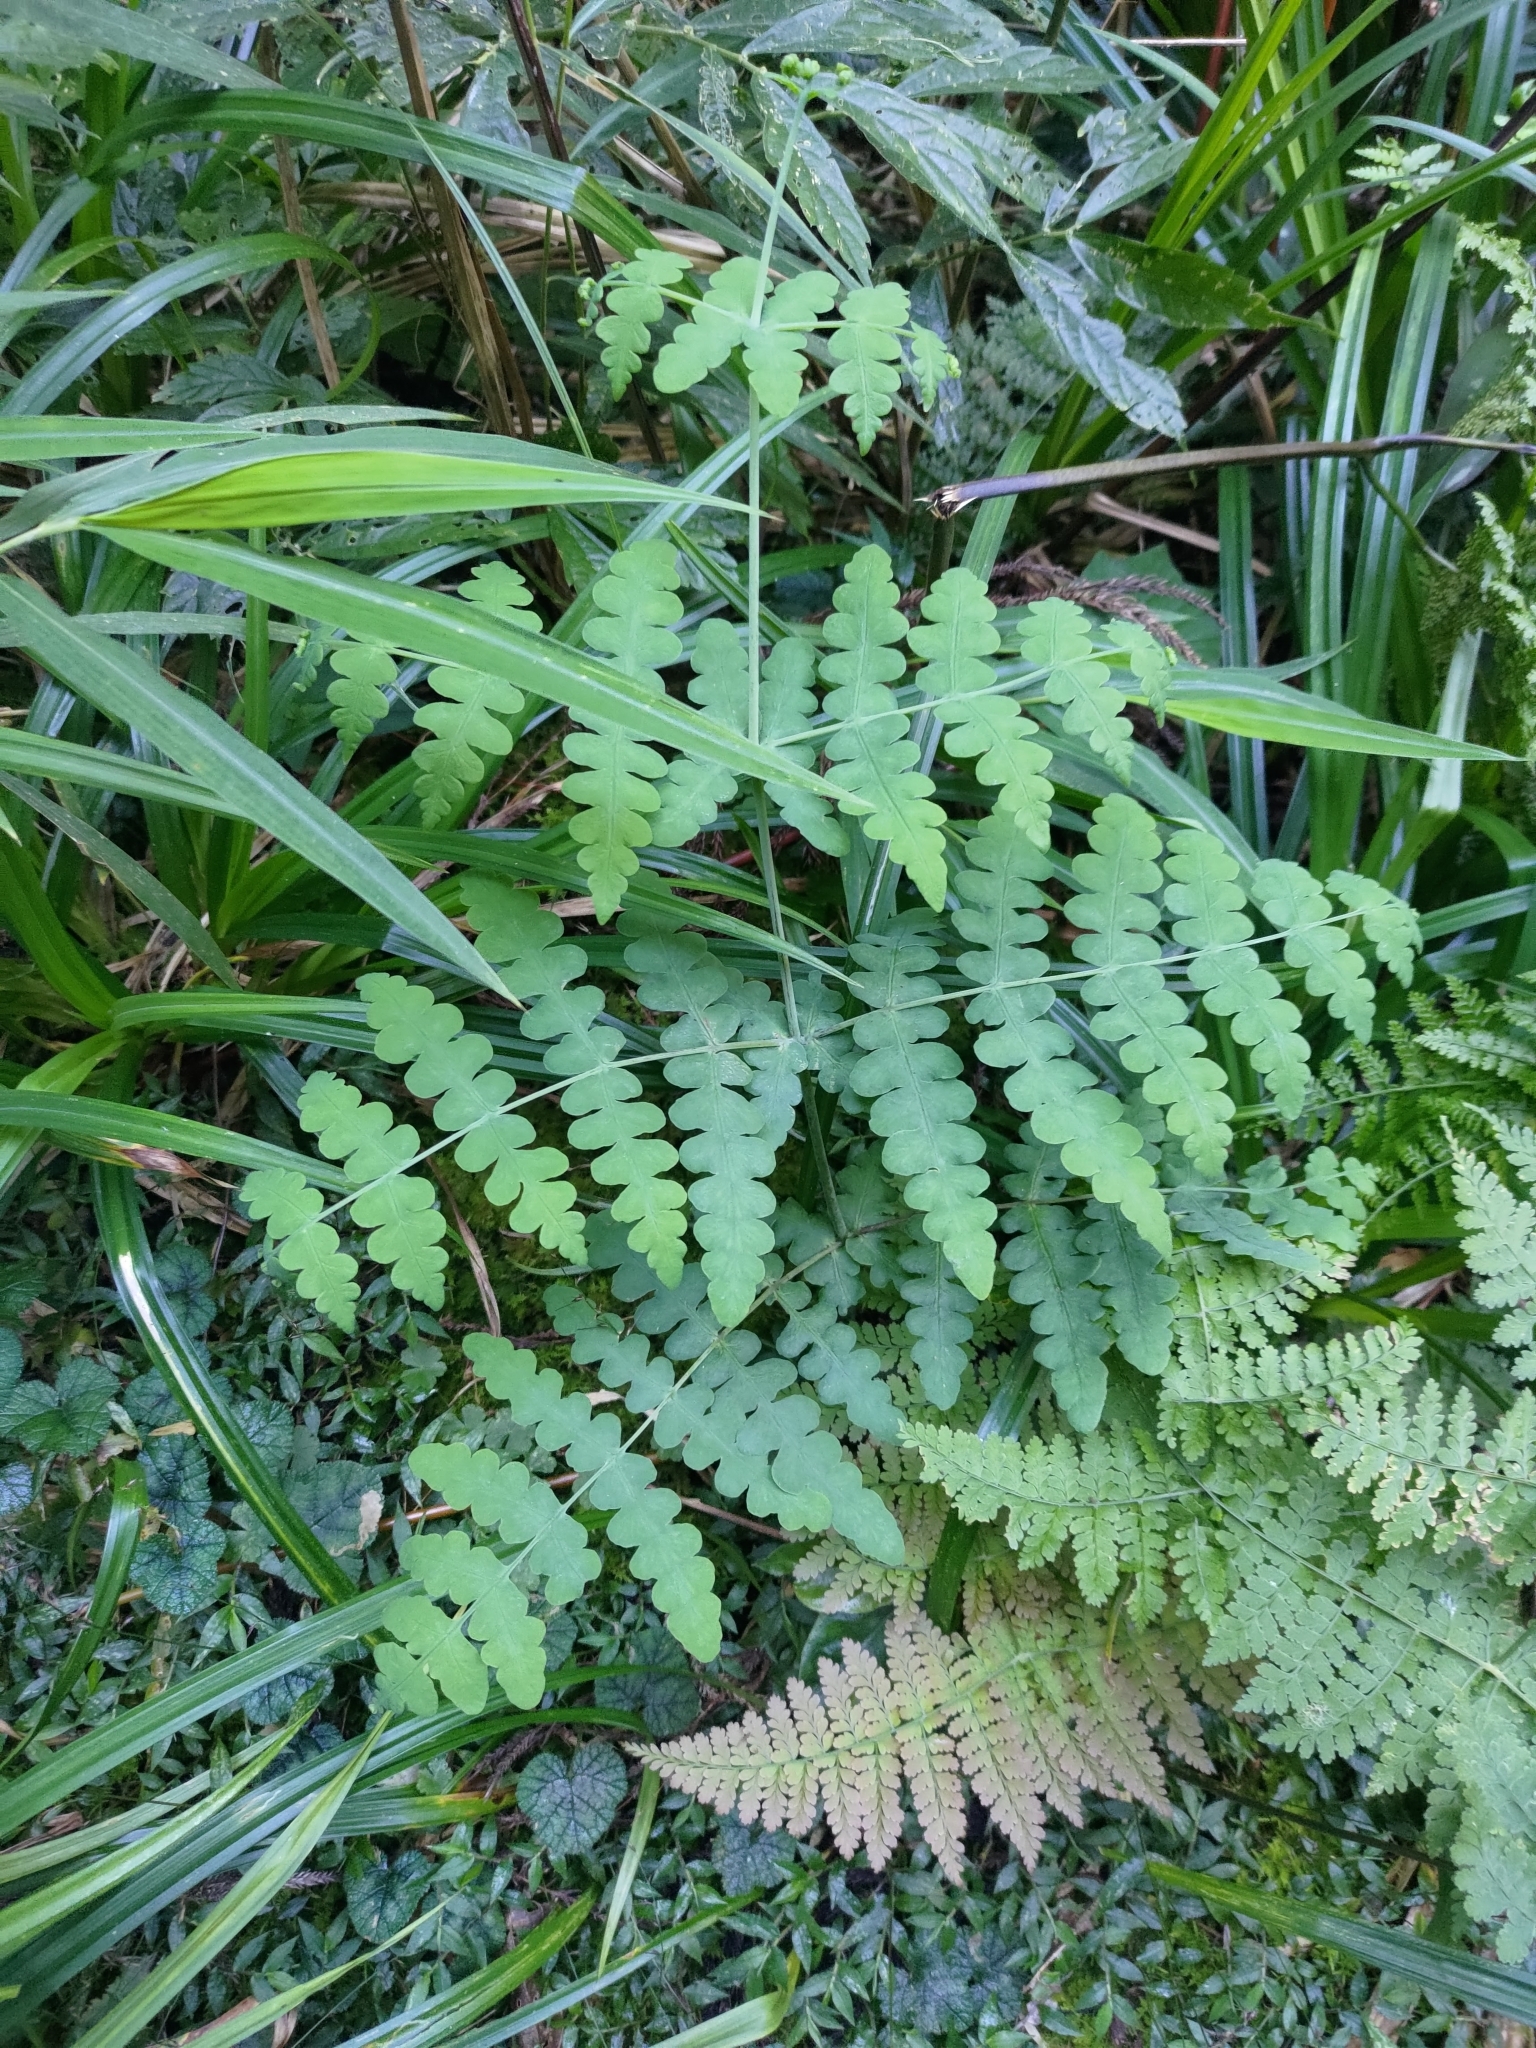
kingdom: Plantae
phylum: Tracheophyta
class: Polypodiopsida
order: Polypodiales
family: Dennstaedtiaceae
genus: Histiopteris
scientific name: Histiopteris incisa
